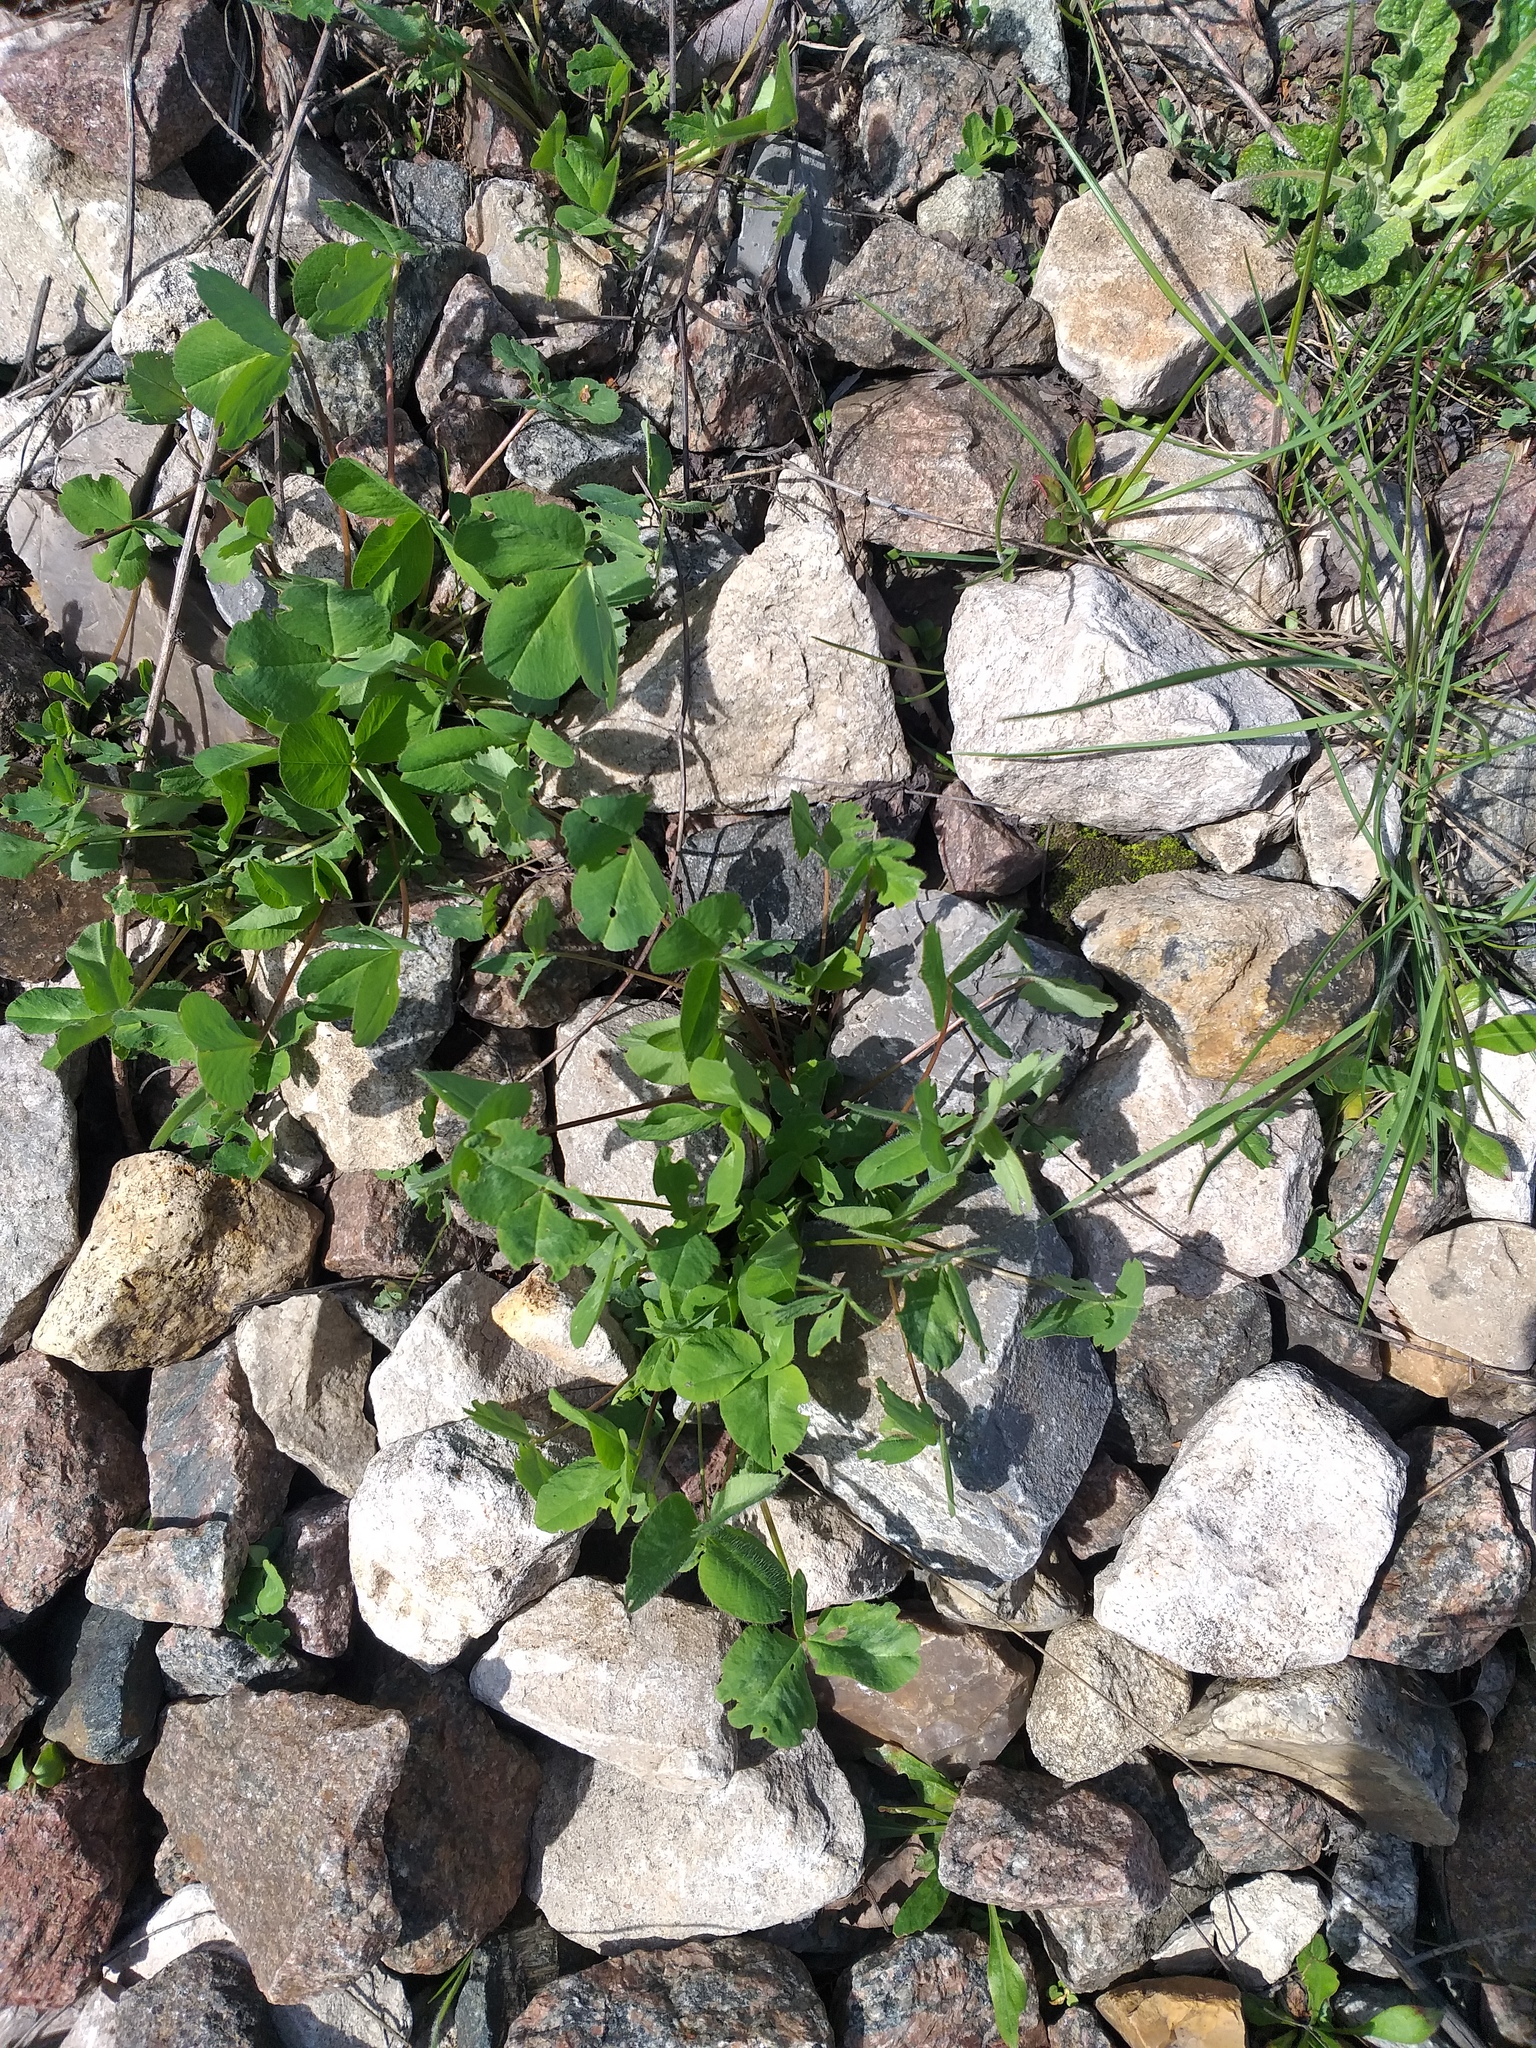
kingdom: Plantae
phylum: Tracheophyta
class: Magnoliopsida
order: Fabales
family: Fabaceae
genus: Trifolium
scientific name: Trifolium pratense
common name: Red clover
